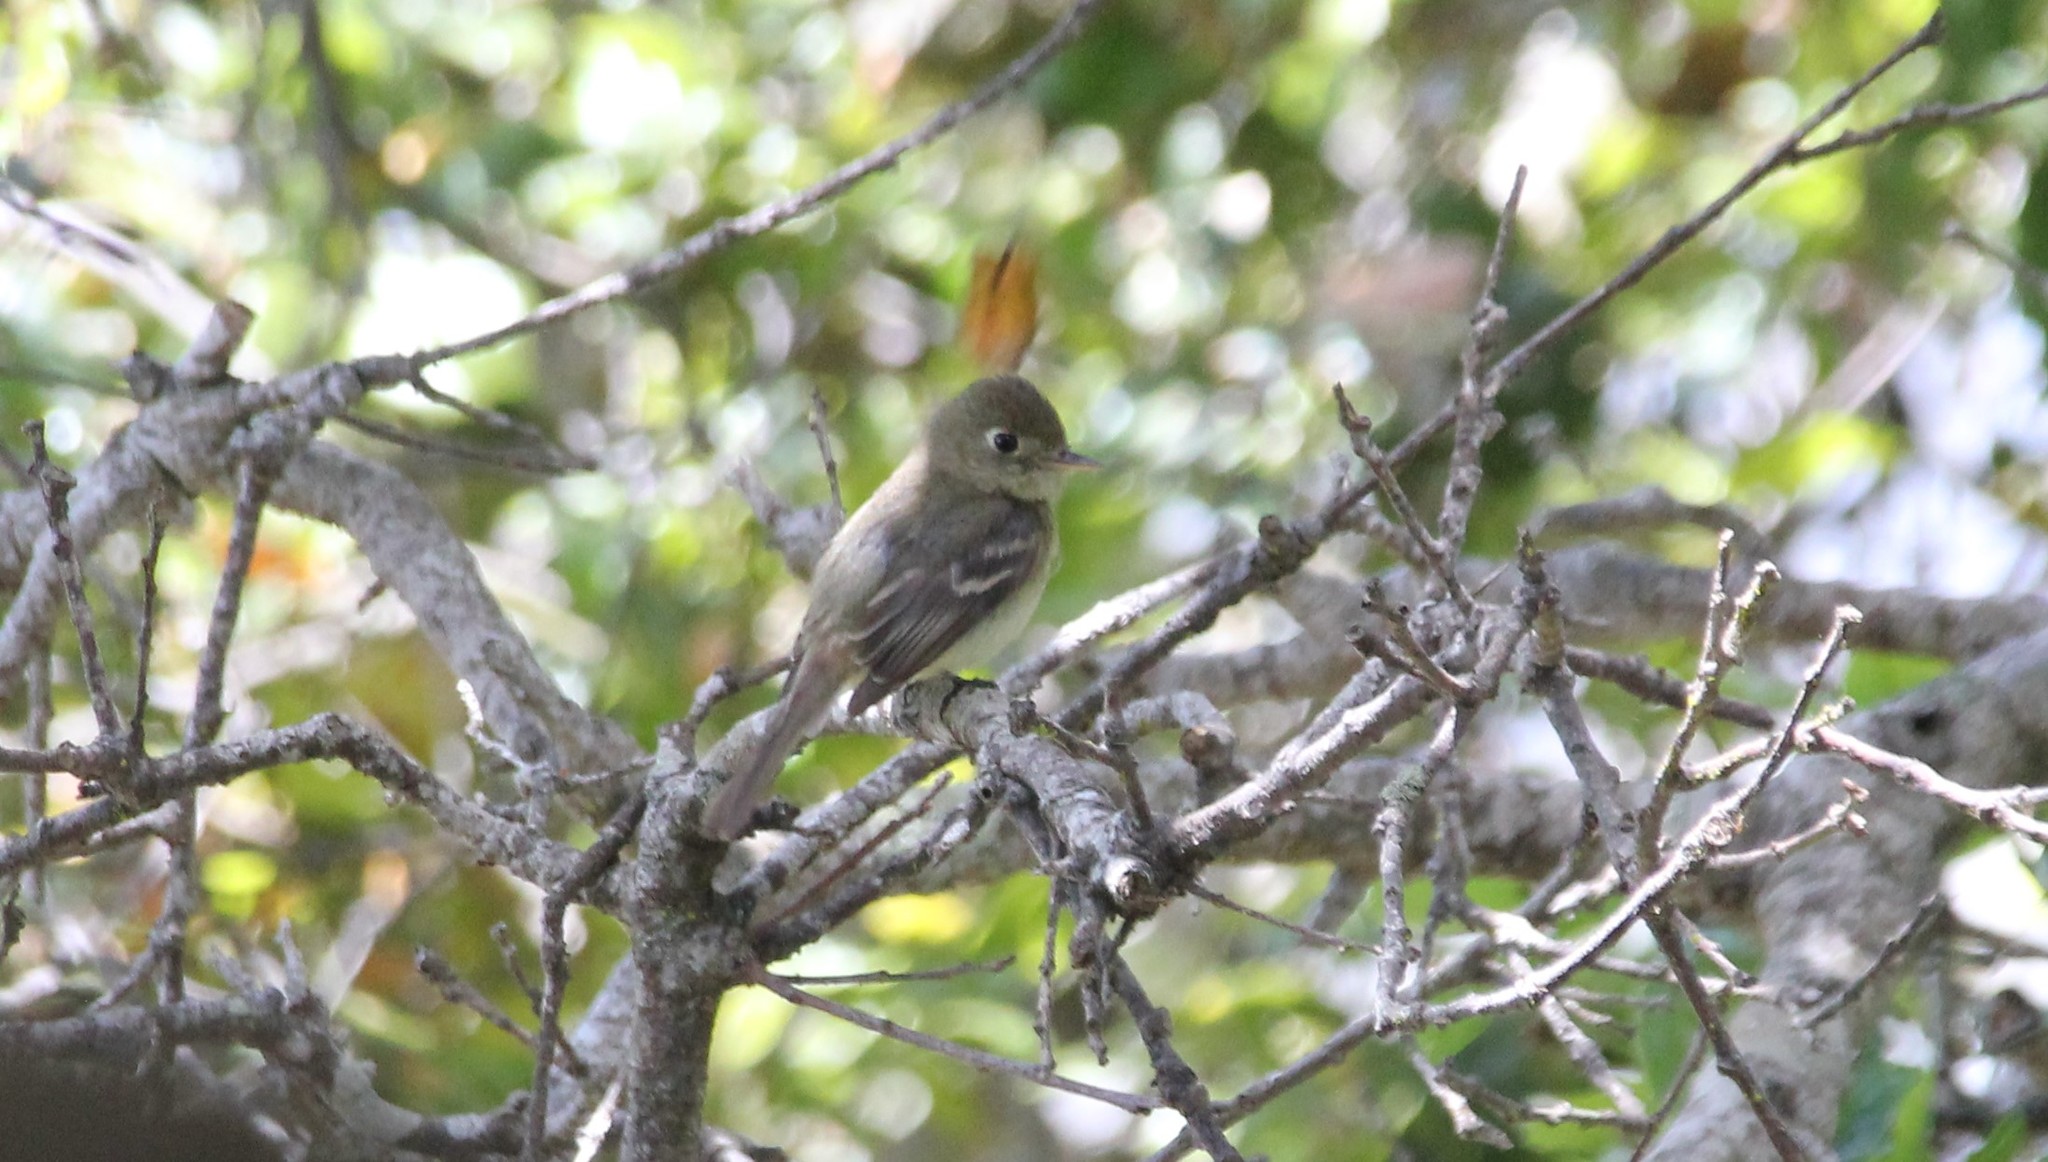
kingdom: Animalia
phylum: Chordata
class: Aves
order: Passeriformes
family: Tyrannidae
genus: Empidonax
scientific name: Empidonax difficilis
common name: Pacific-slope flycatcher
